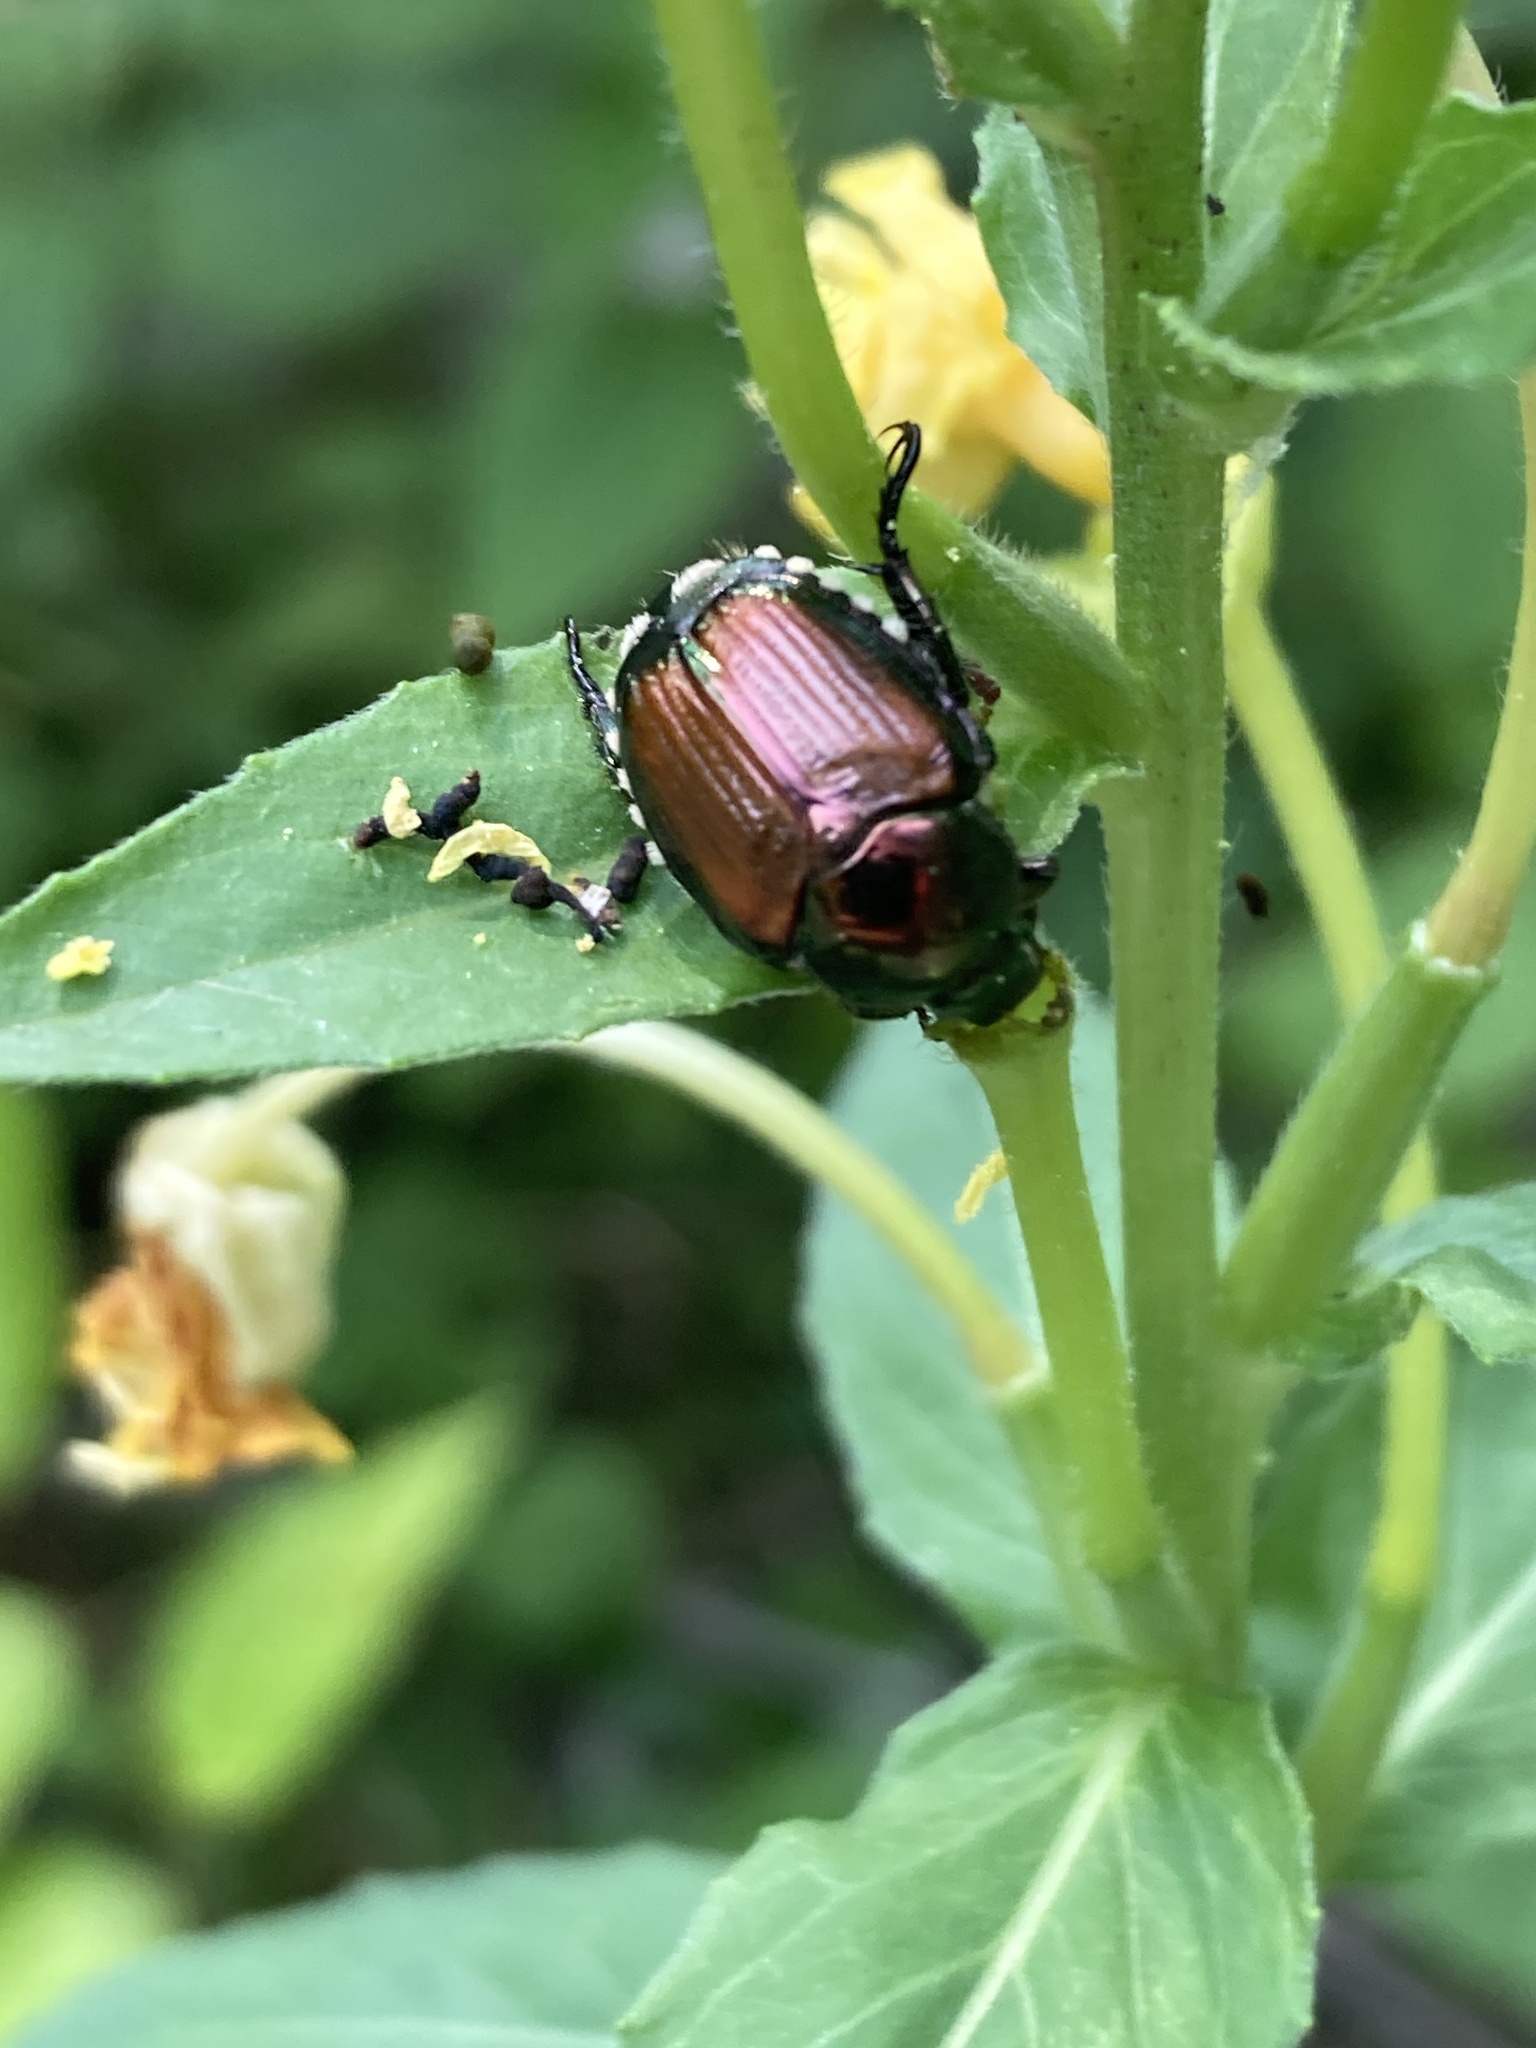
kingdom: Animalia
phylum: Arthropoda
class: Insecta
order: Coleoptera
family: Scarabaeidae
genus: Popillia
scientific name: Popillia japonica
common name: Japanese beetle
